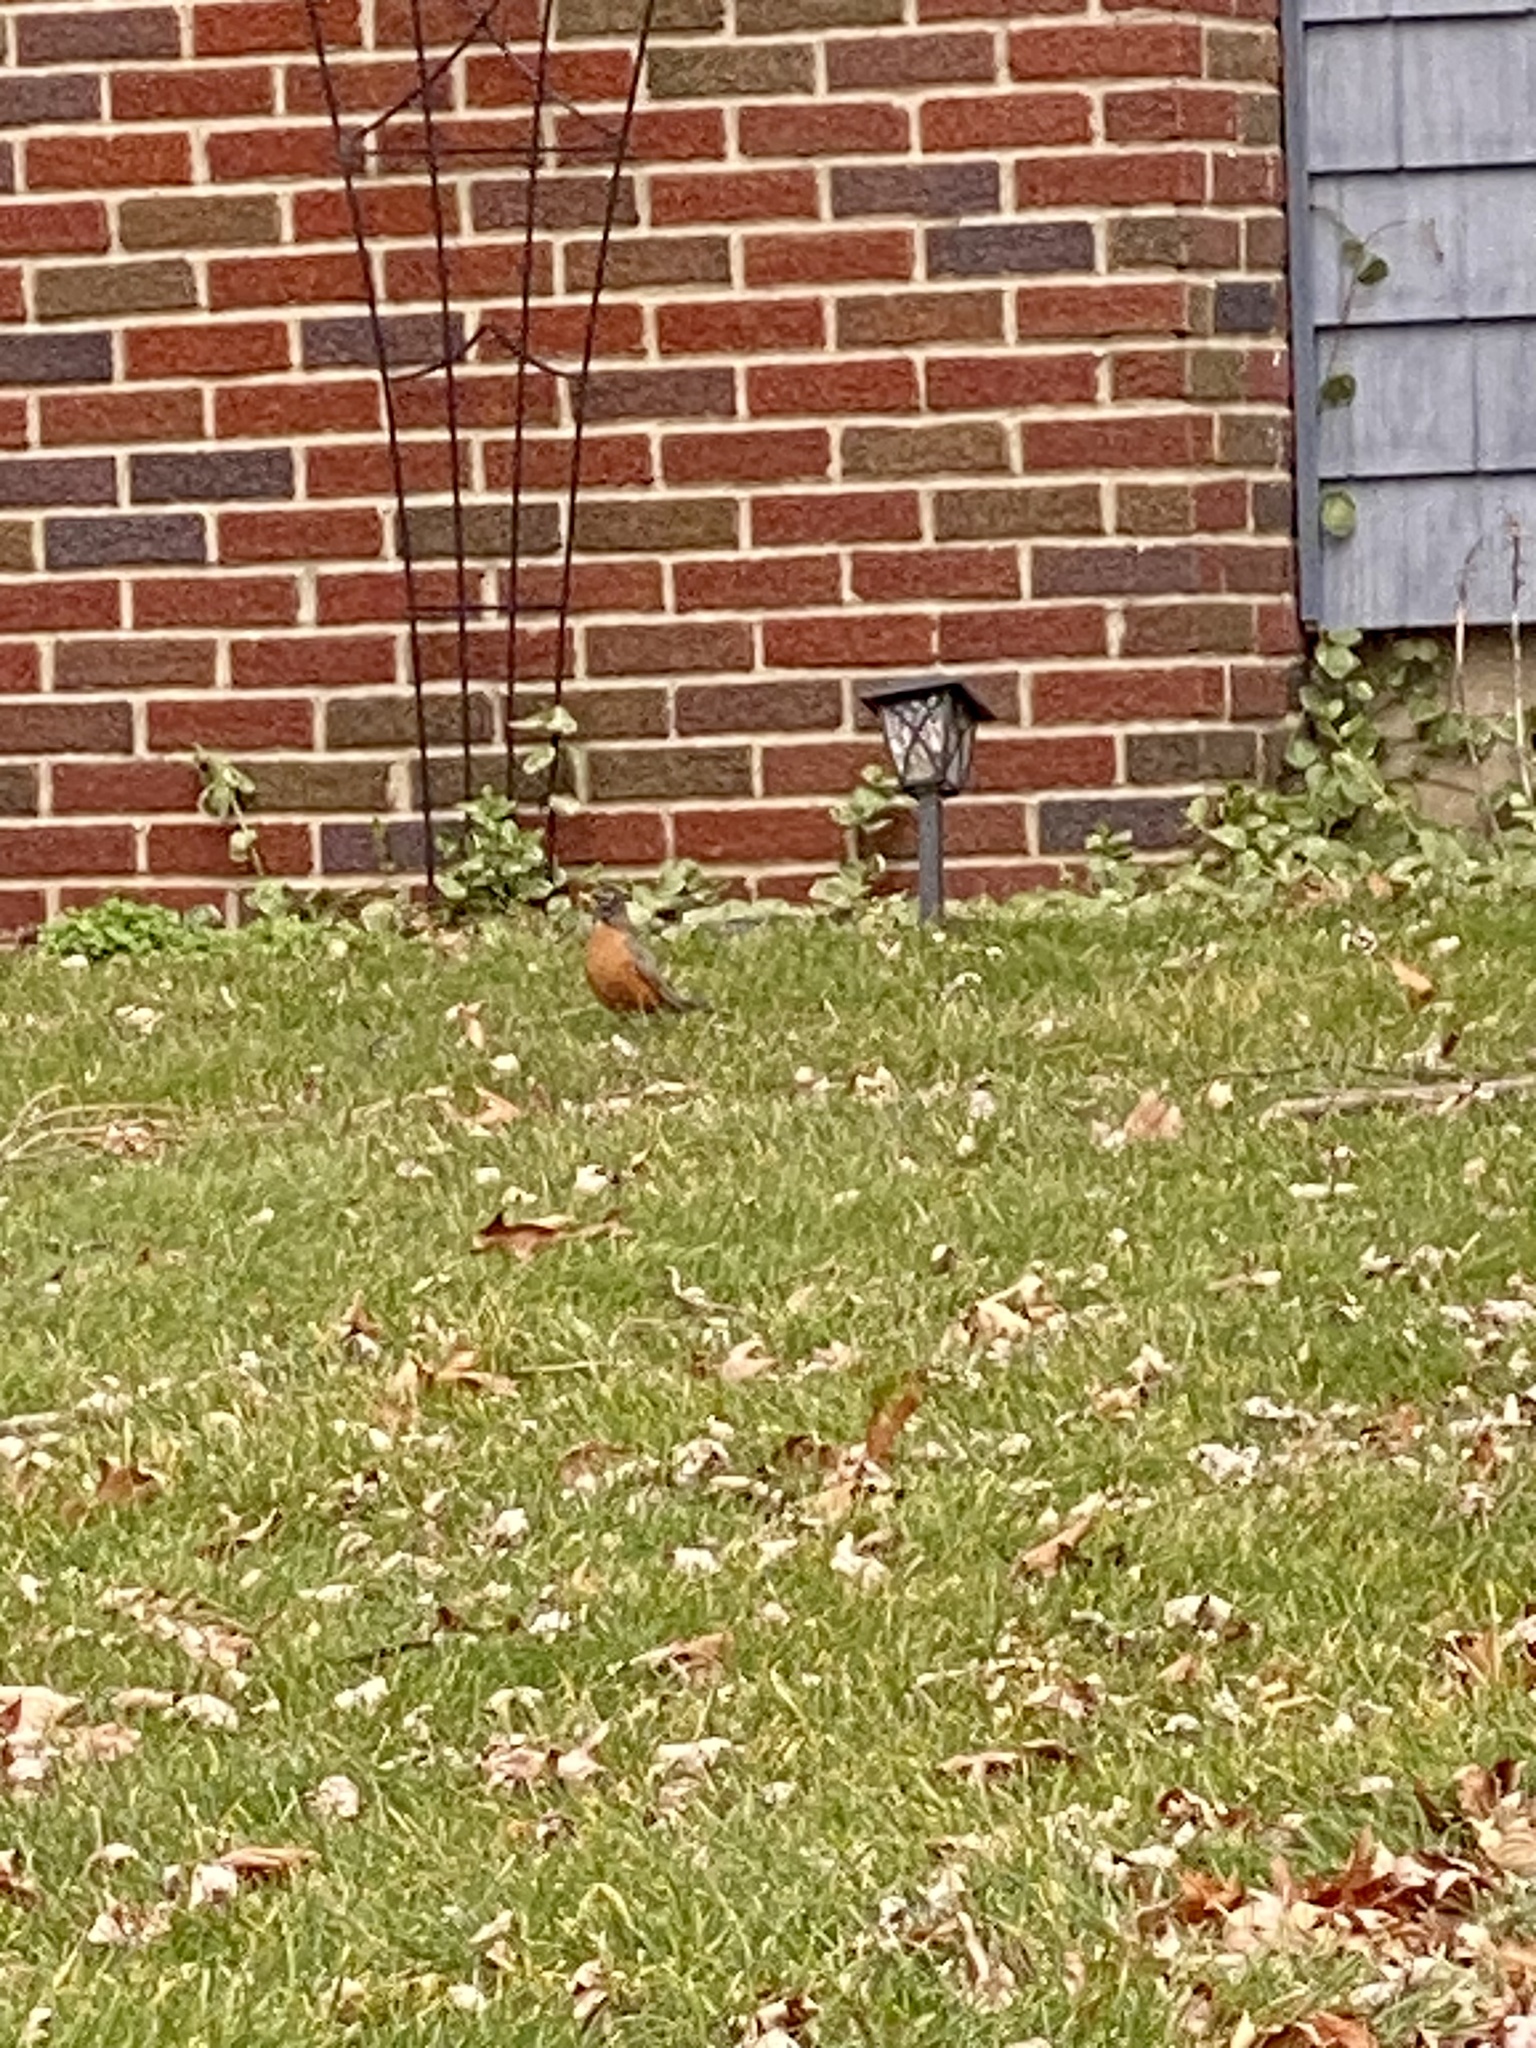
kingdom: Animalia
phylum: Chordata
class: Aves
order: Passeriformes
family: Turdidae
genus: Turdus
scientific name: Turdus migratorius
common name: American robin
